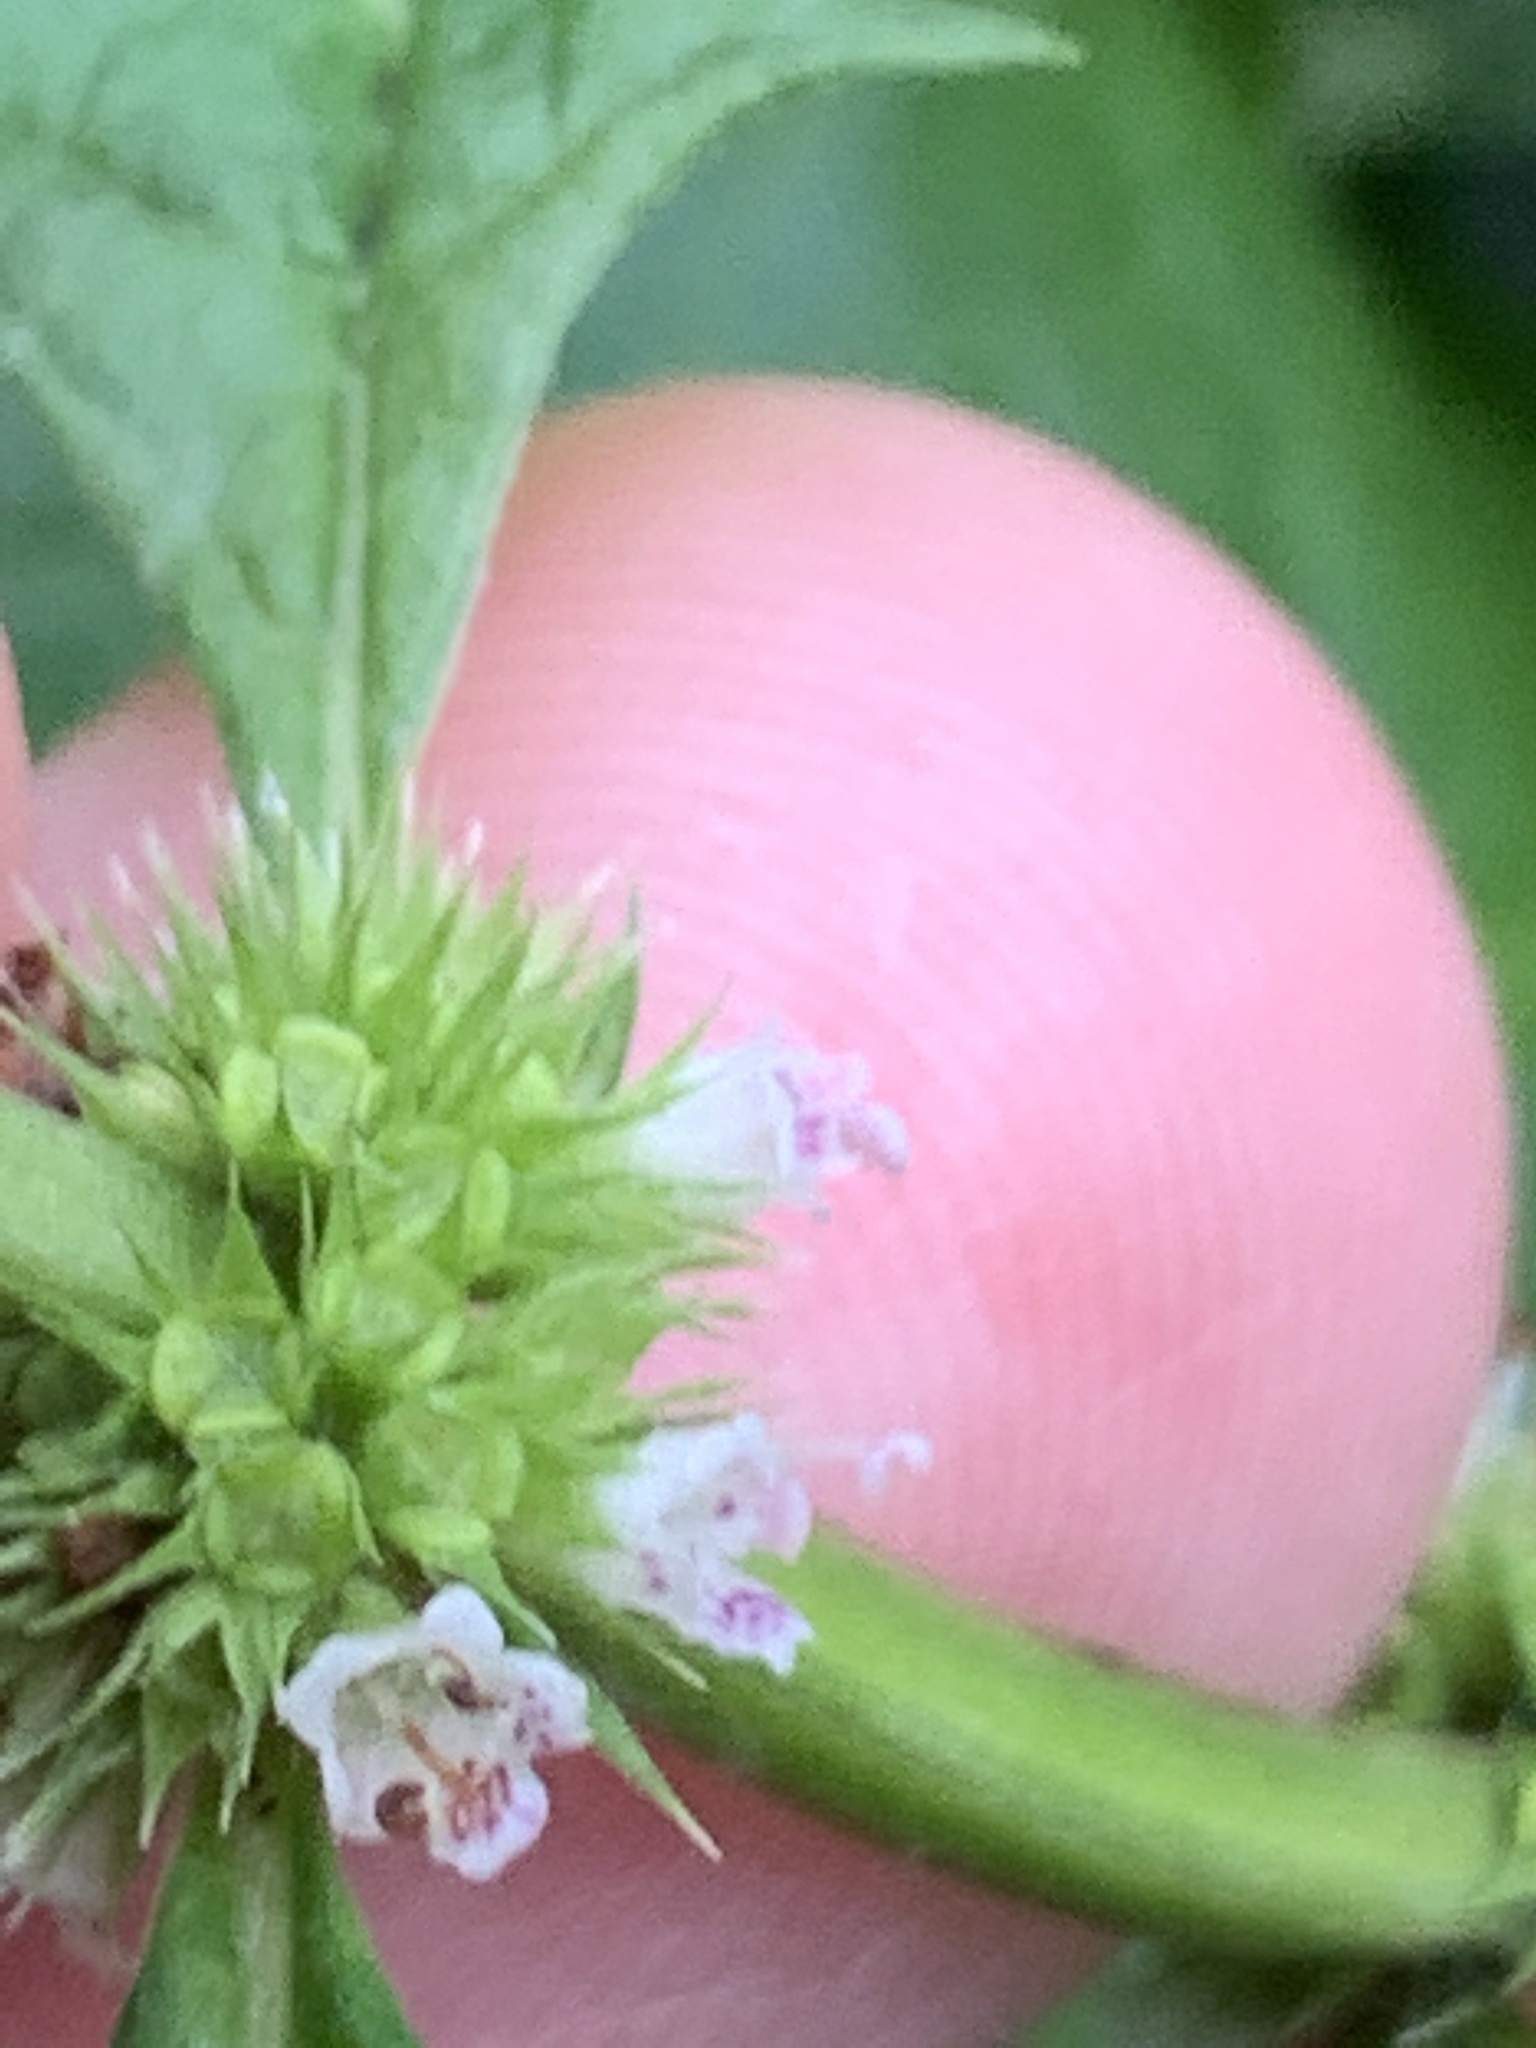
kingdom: Plantae
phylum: Tracheophyta
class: Magnoliopsida
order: Lamiales
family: Lamiaceae
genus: Lycopus
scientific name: Lycopus europaeus
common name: European bugleweed
